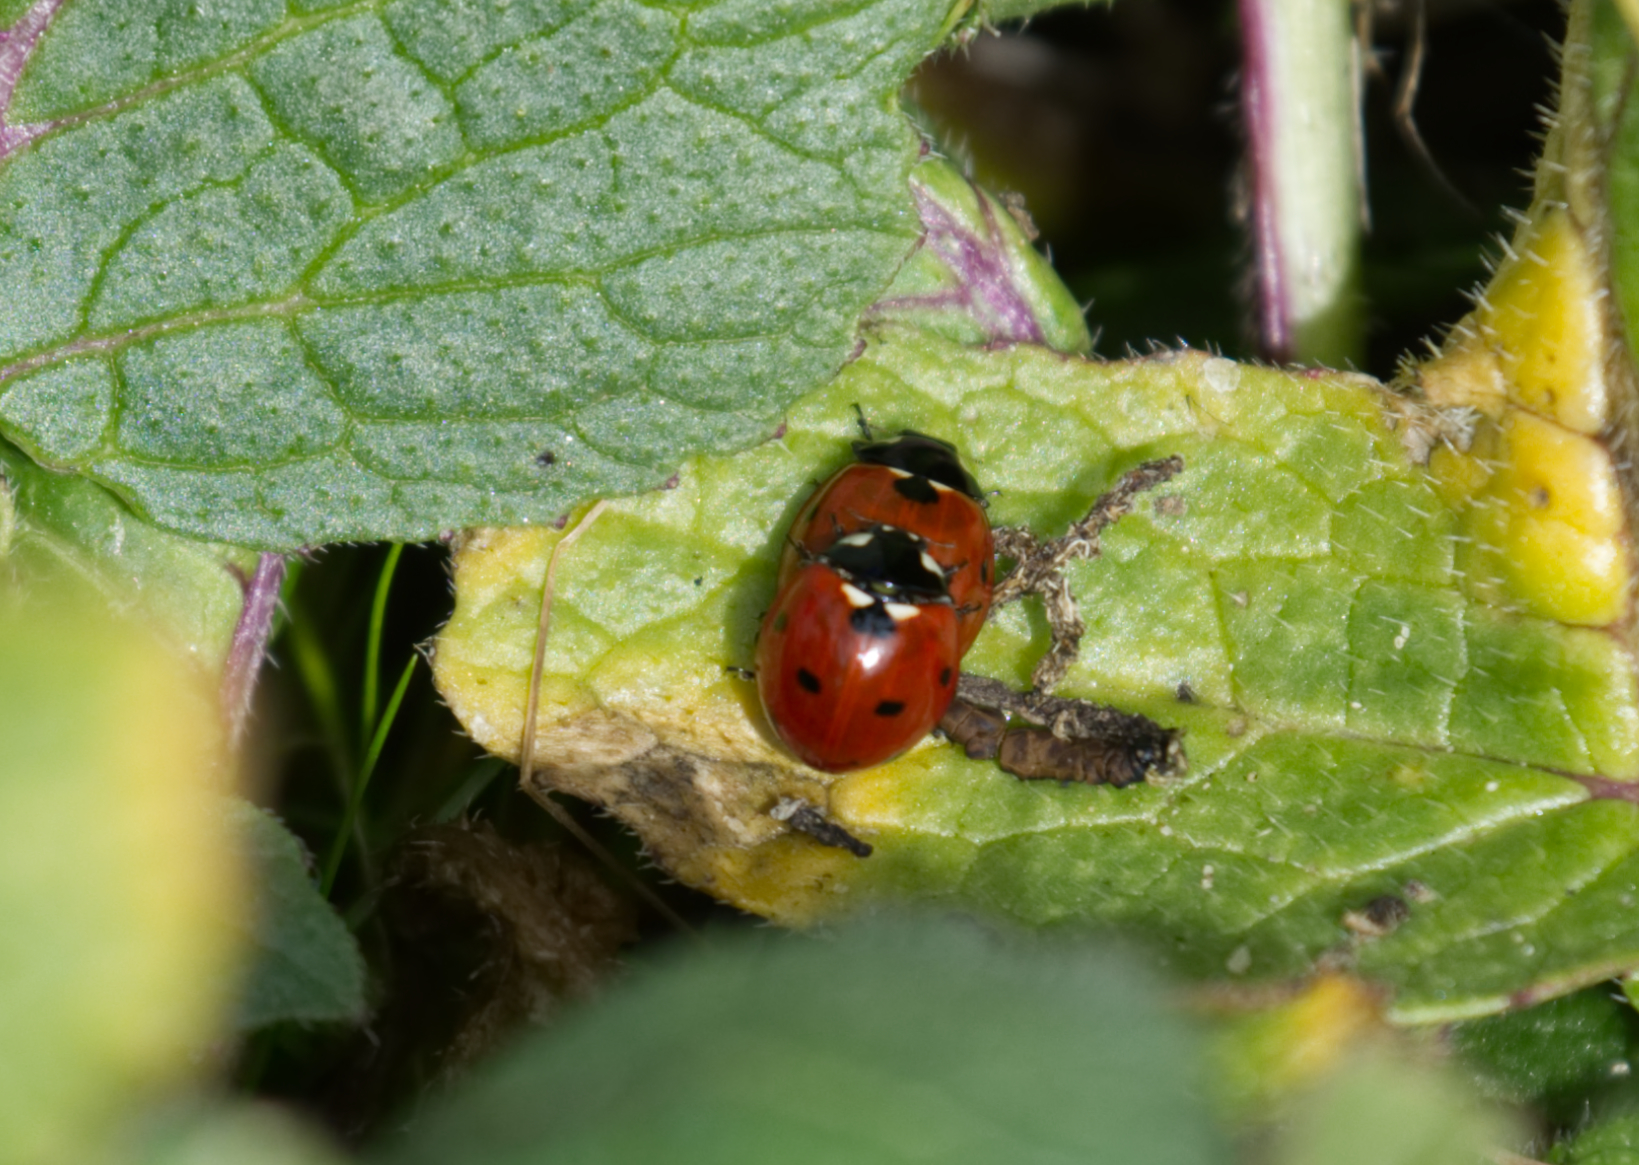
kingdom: Animalia
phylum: Arthropoda
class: Insecta
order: Coleoptera
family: Coccinellidae
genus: Coccinella
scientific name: Coccinella septempunctata
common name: Sevenspotted lady beetle
